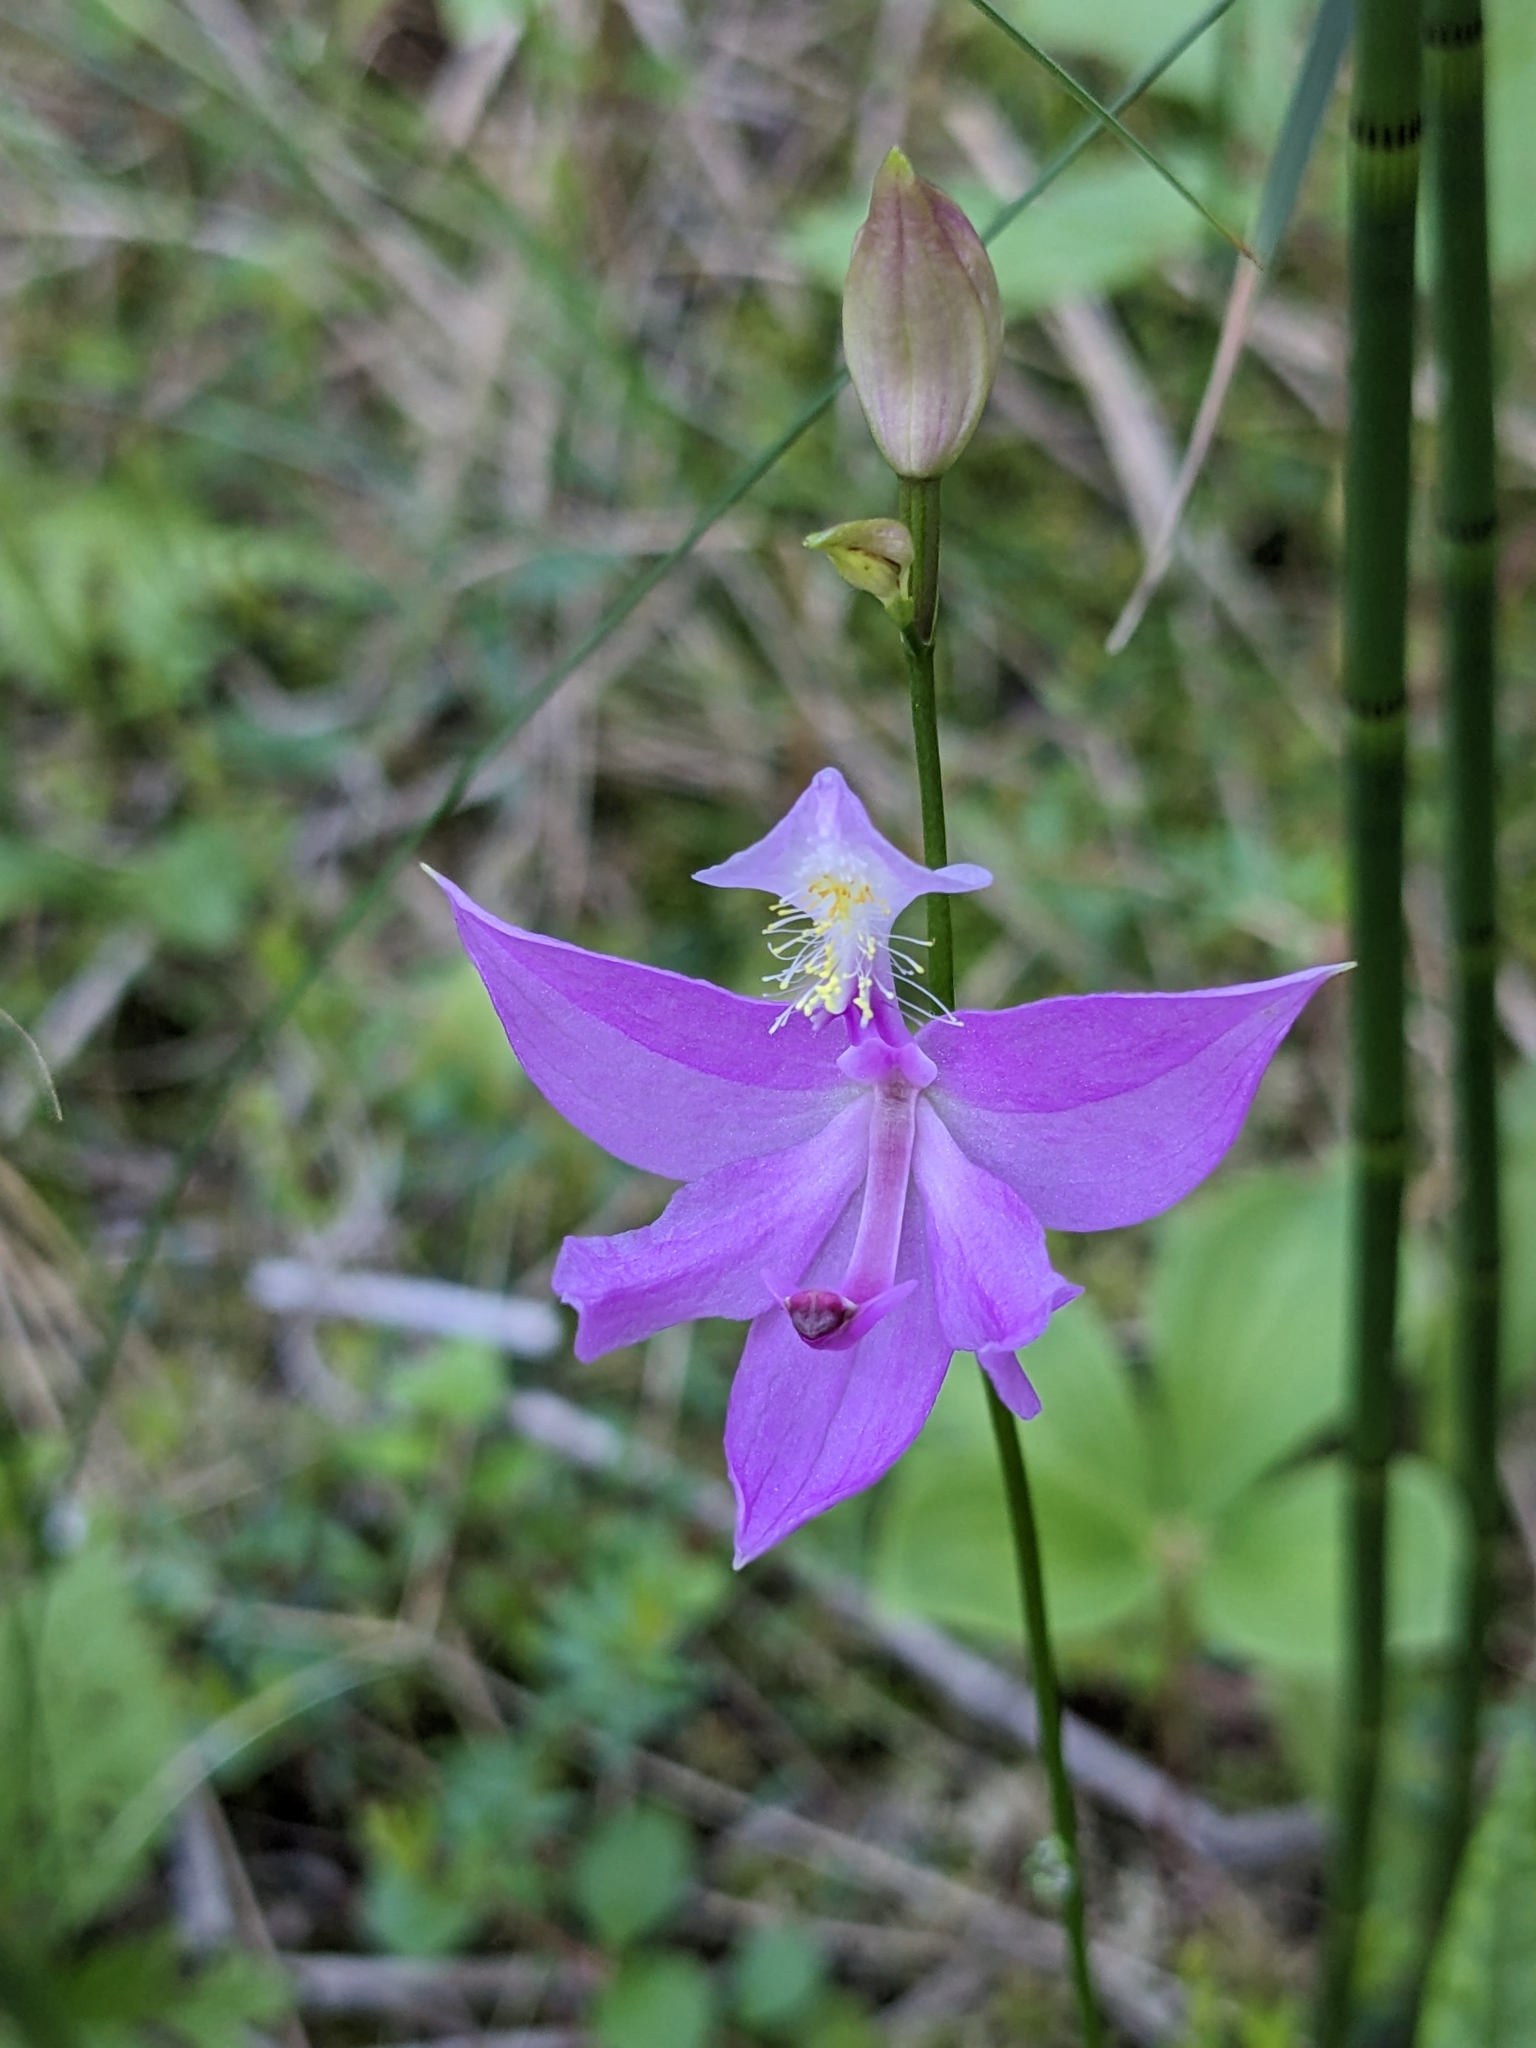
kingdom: Plantae
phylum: Tracheophyta
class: Liliopsida
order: Asparagales
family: Orchidaceae
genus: Calopogon
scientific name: Calopogon tuberosus
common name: Grass-pink
